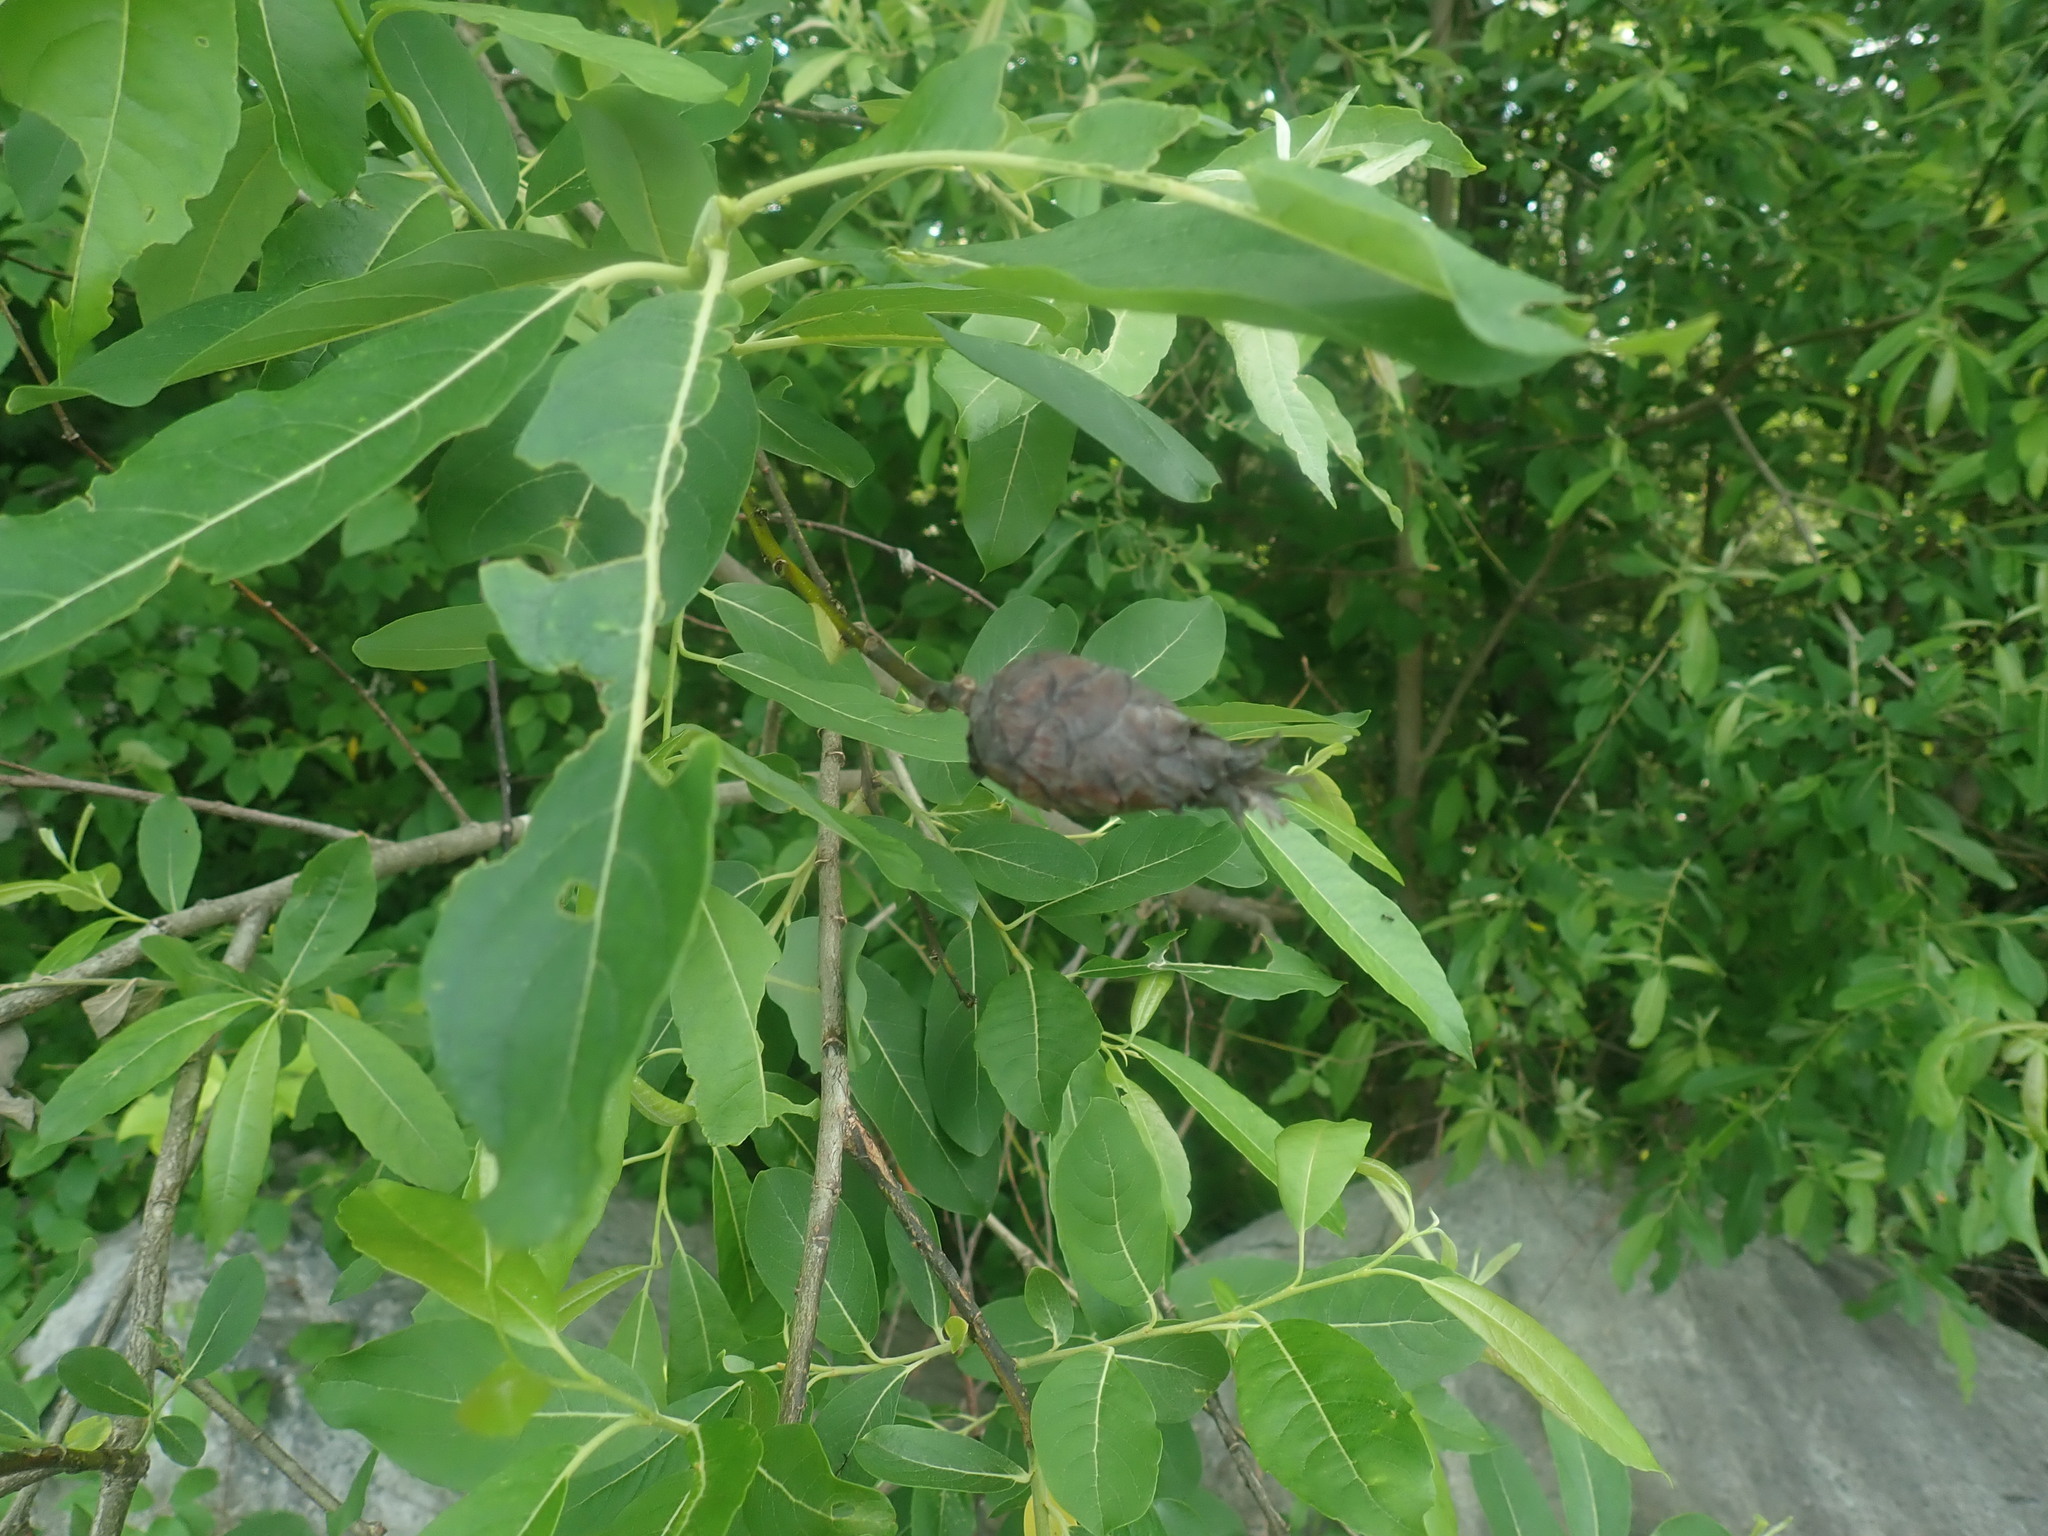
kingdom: Animalia
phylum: Arthropoda
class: Insecta
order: Diptera
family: Cecidomyiidae
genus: Rabdophaga
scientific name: Rabdophaga strobiloides
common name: Willow pinecone gall midge
